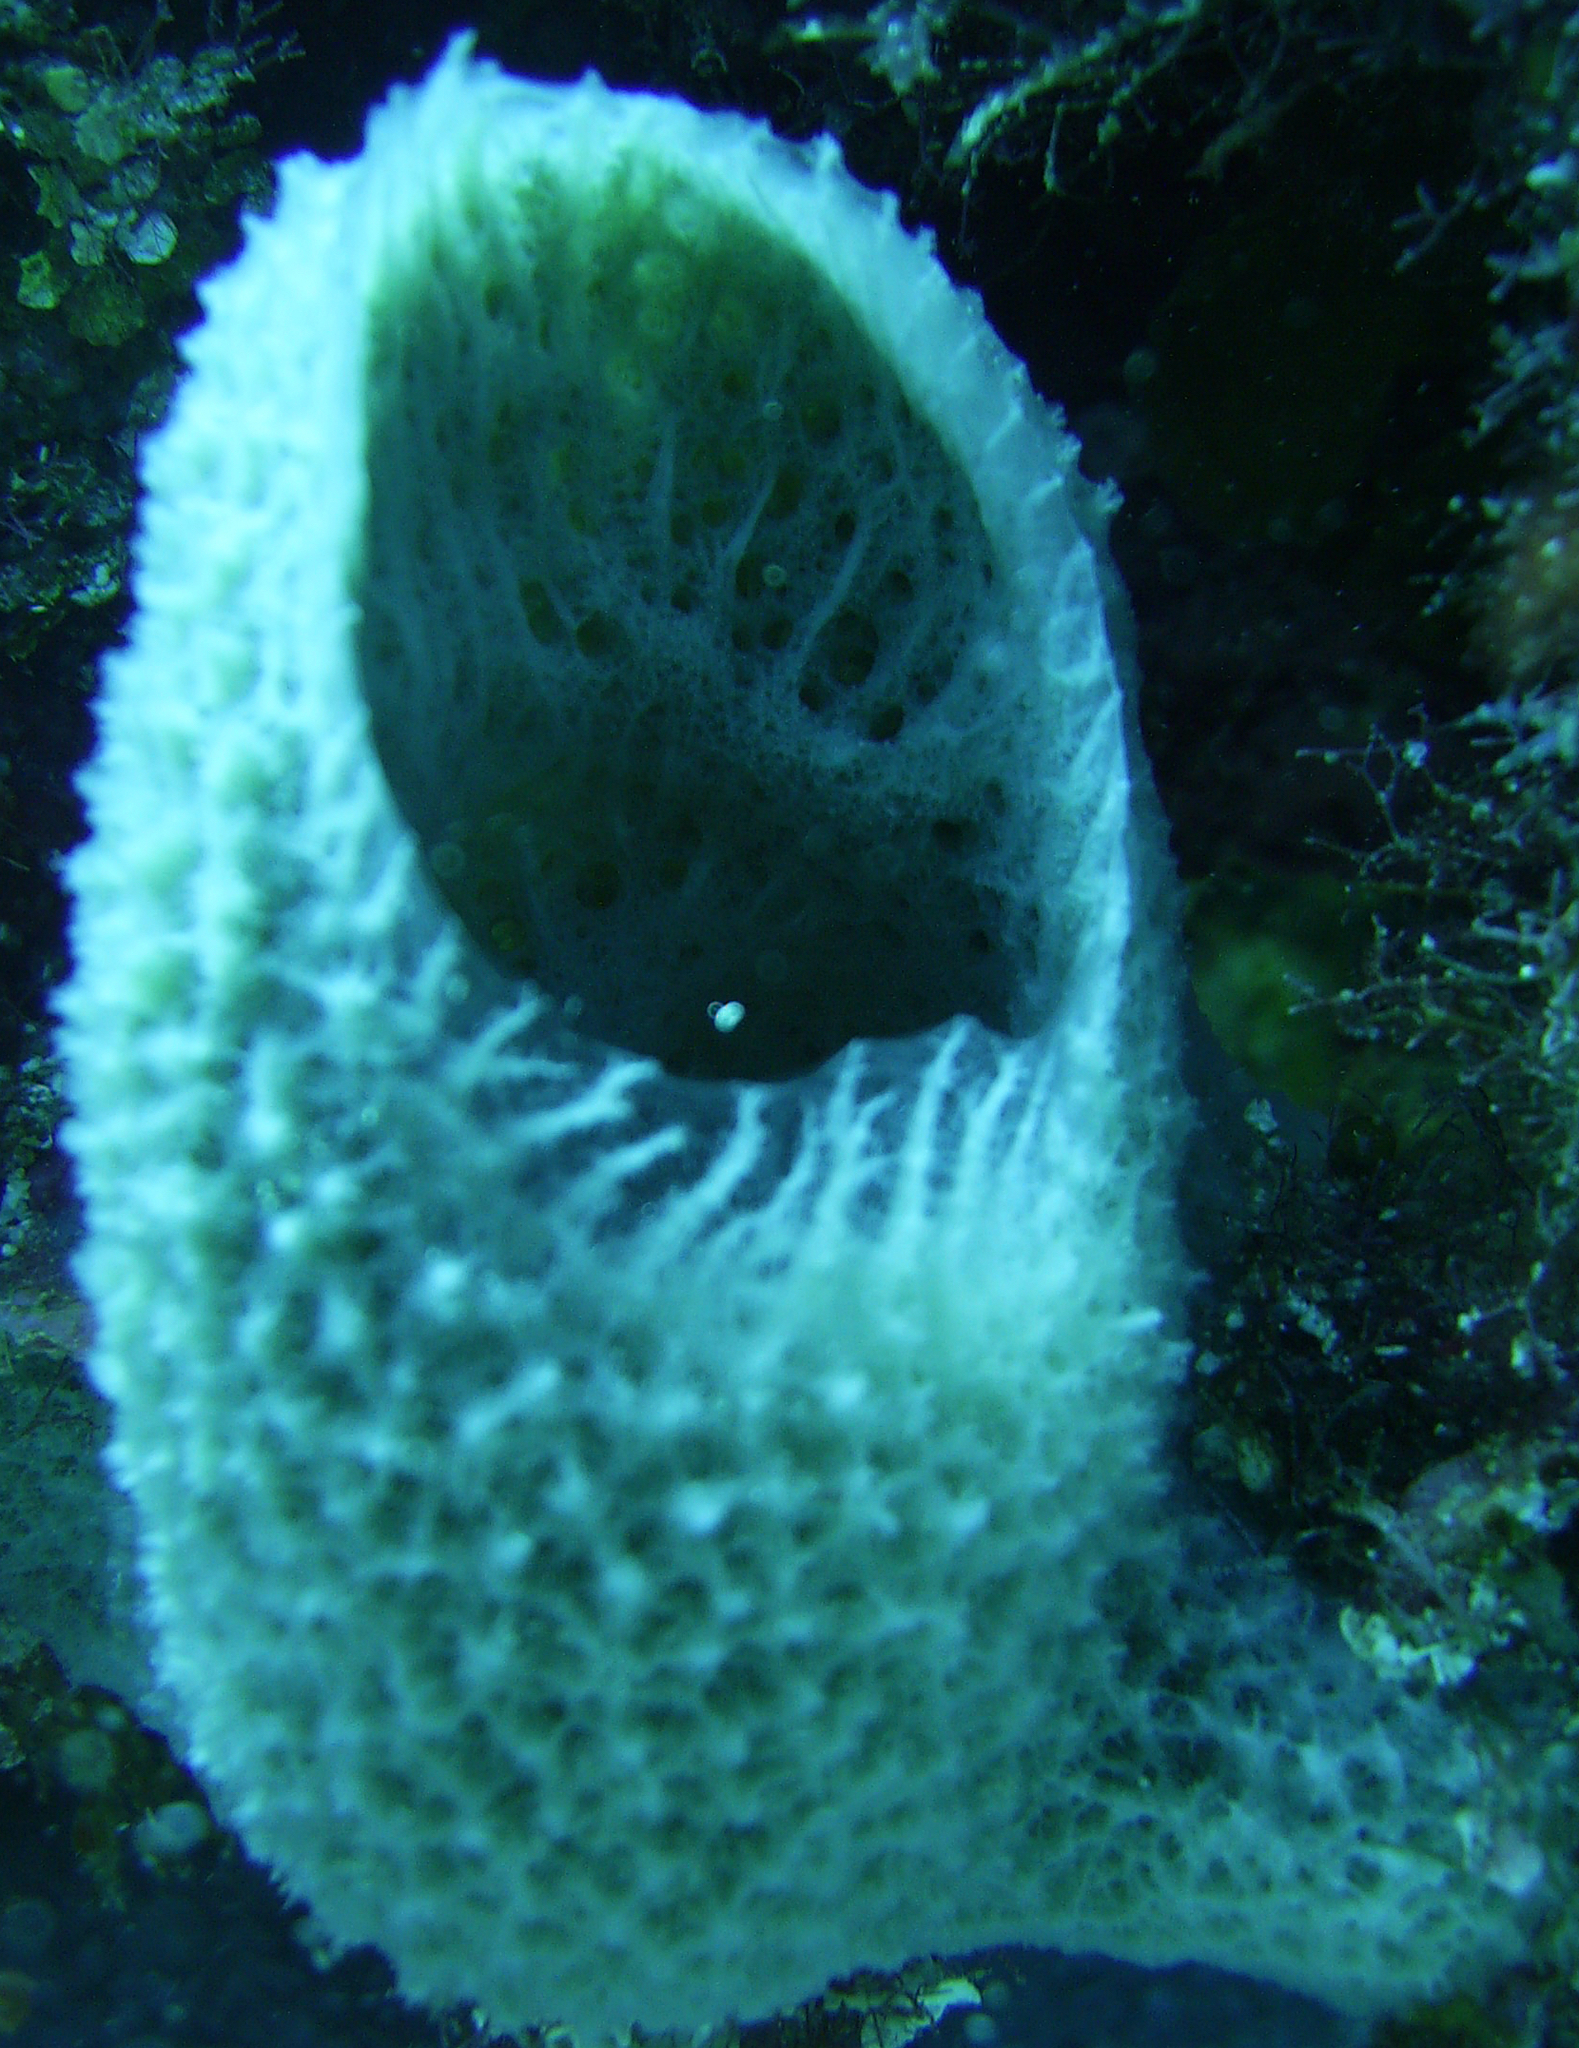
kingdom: Animalia
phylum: Porifera
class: Demospongiae
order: Haplosclerida
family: Niphatidae
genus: Niphates
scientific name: Niphates digitalis
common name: Pink vase sponge
